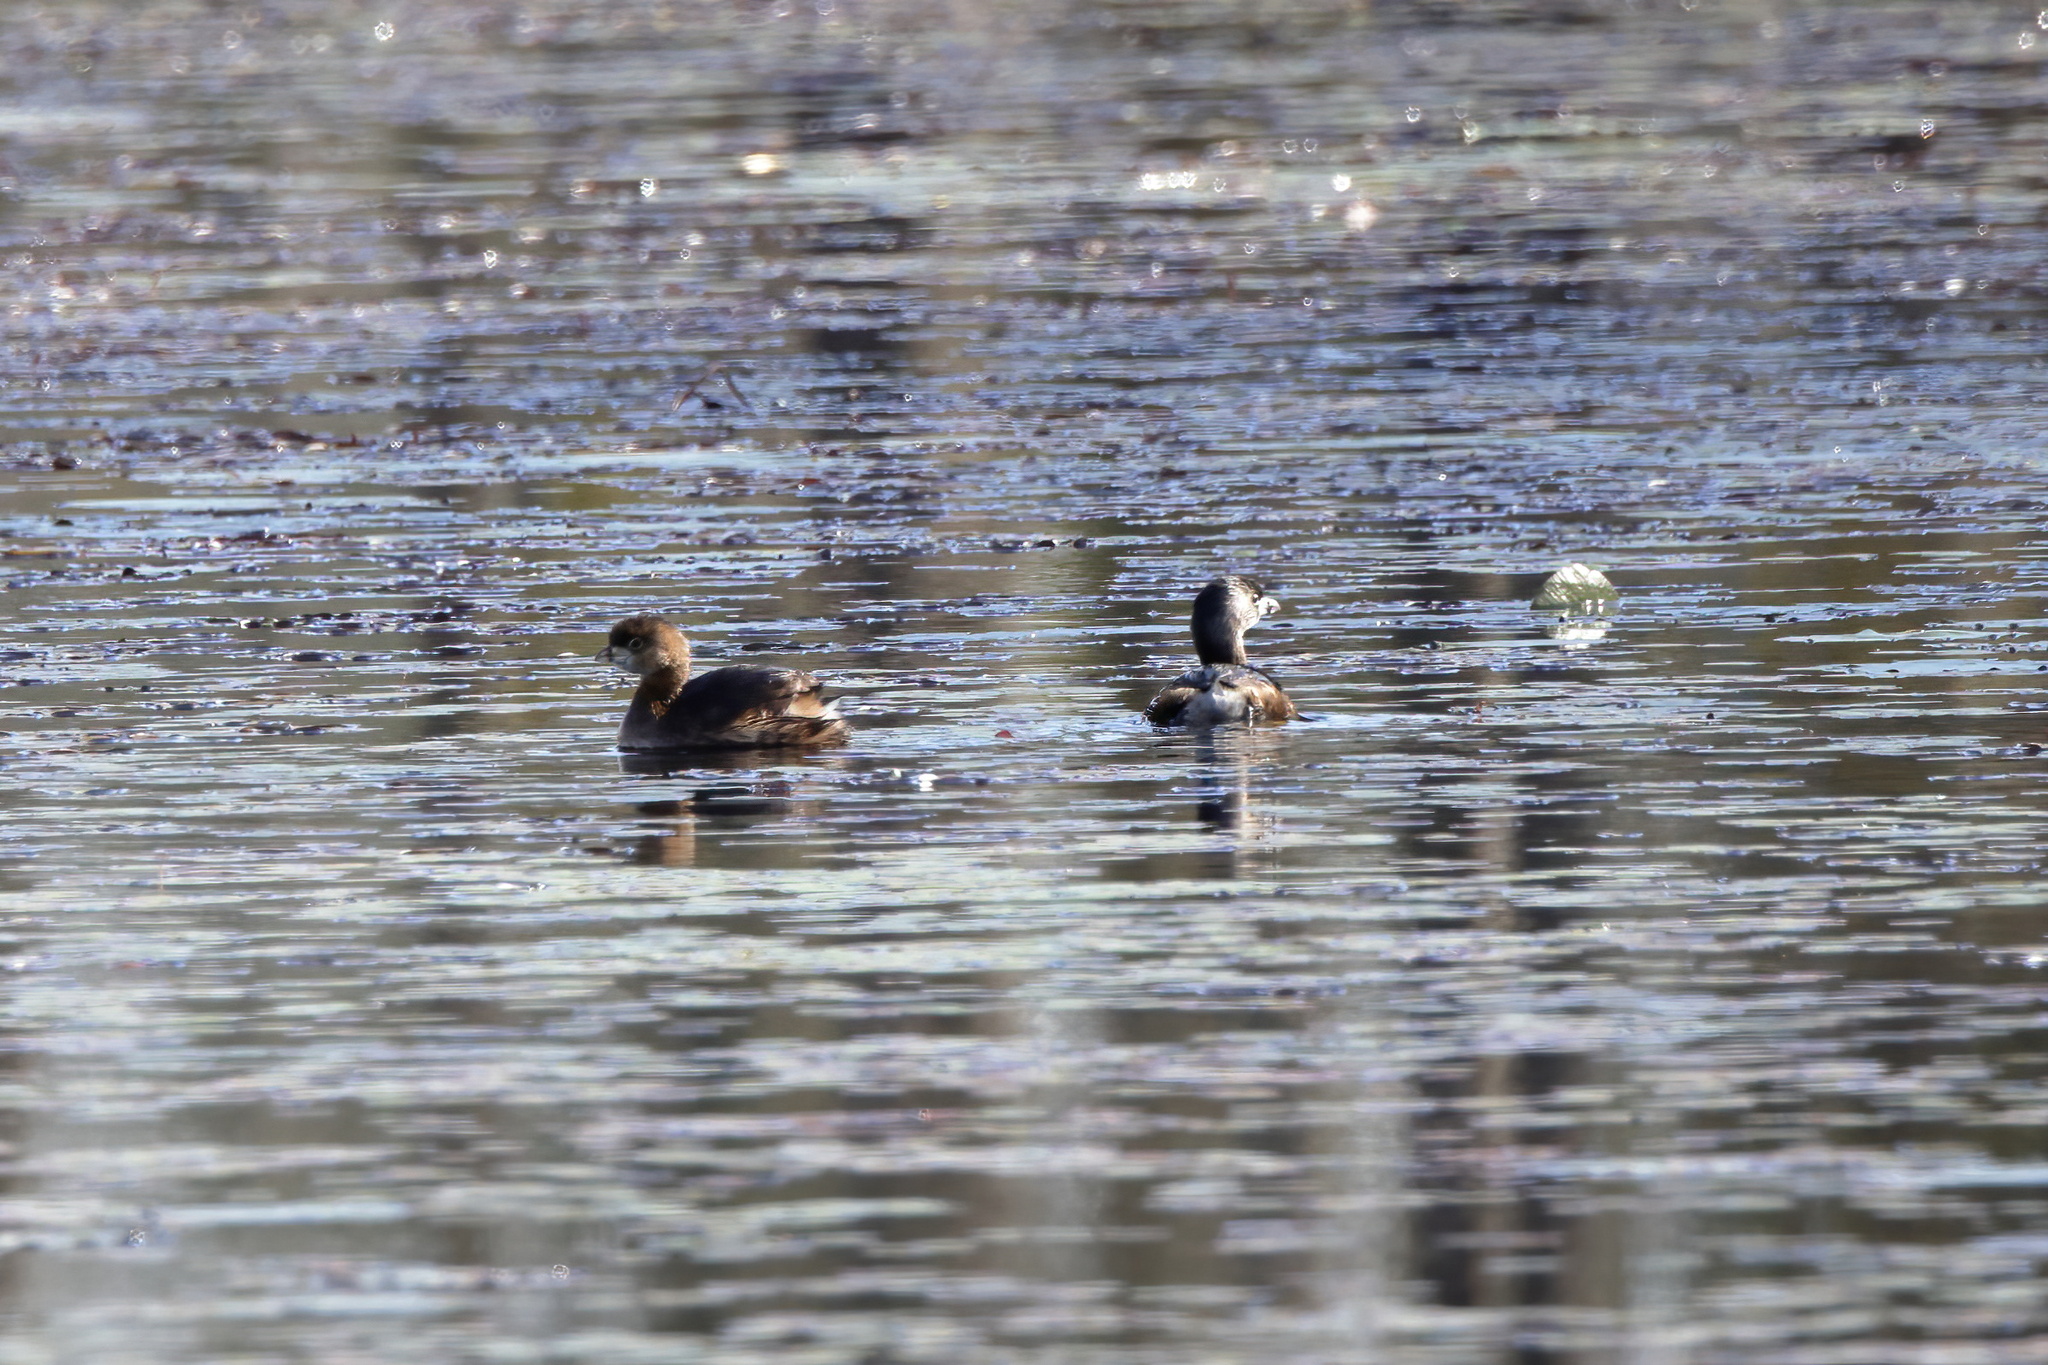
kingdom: Animalia
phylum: Chordata
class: Aves
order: Podicipediformes
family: Podicipedidae
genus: Podilymbus
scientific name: Podilymbus podiceps
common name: Pied-billed grebe
